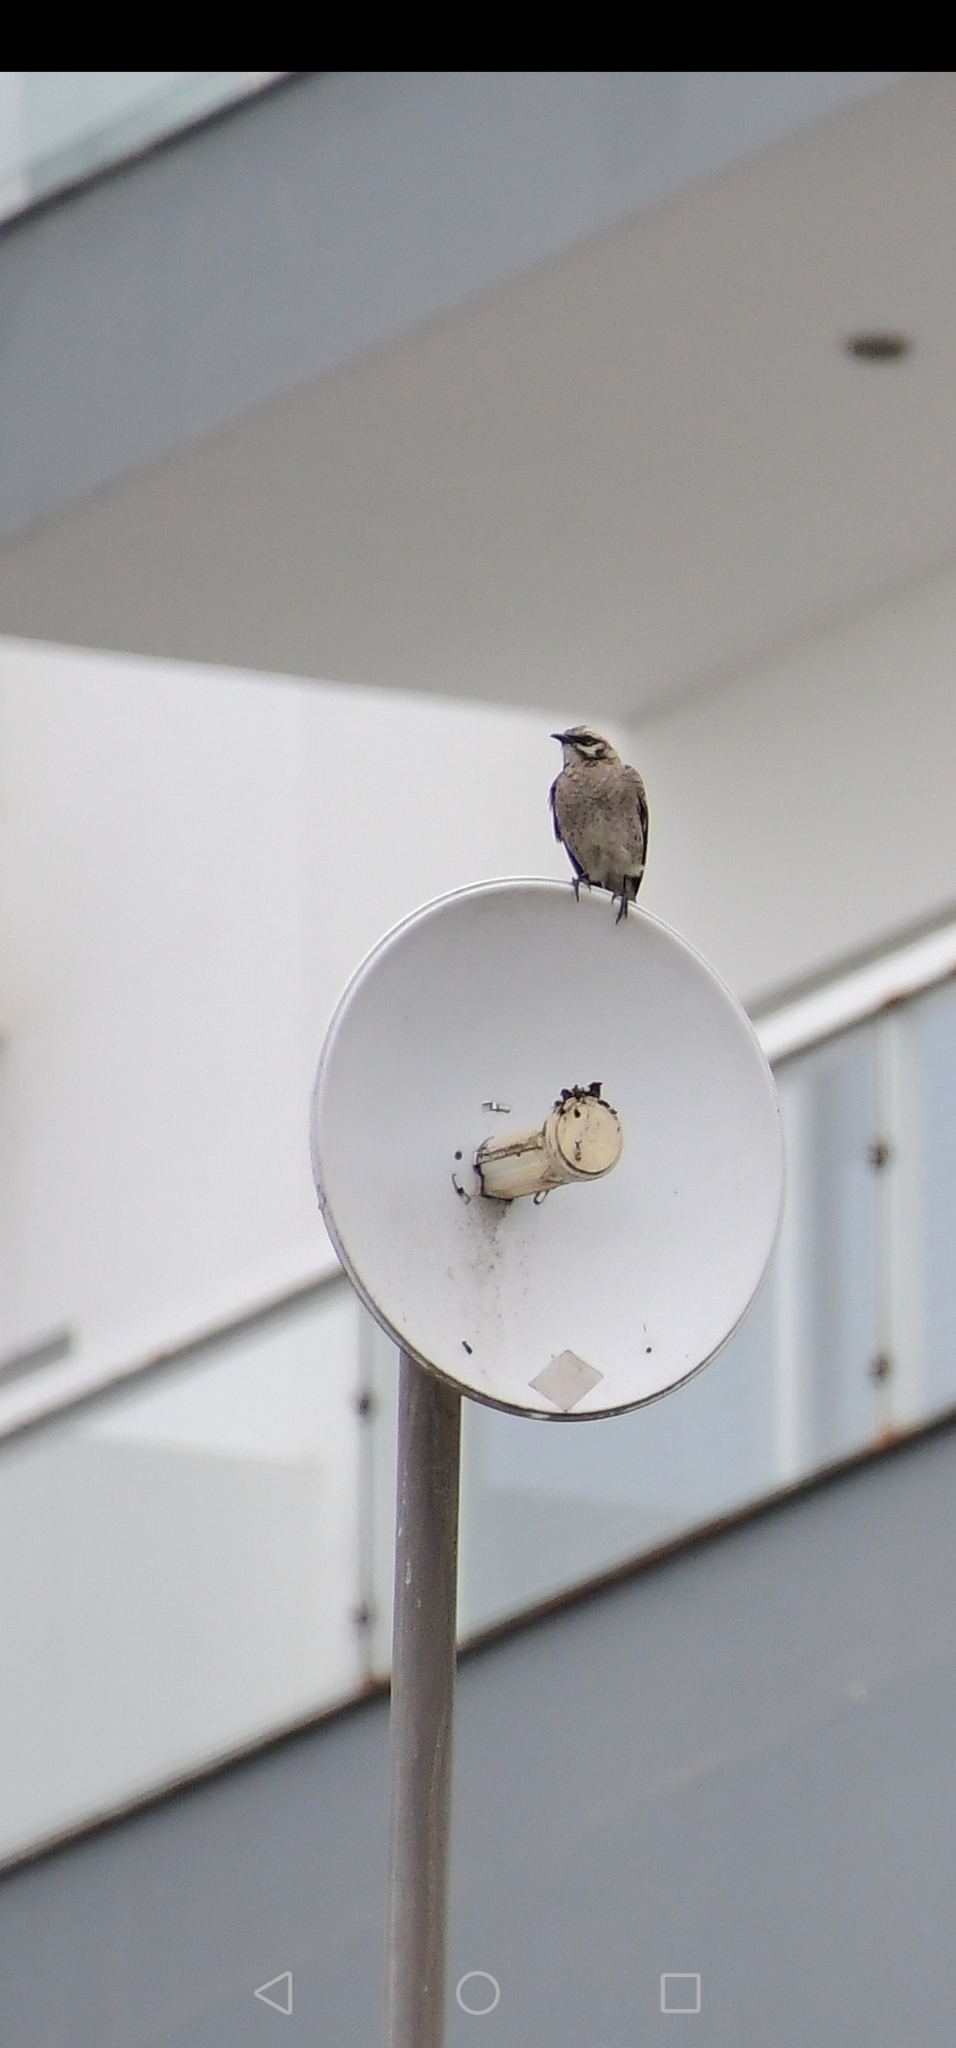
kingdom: Animalia
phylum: Chordata
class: Aves
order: Passeriformes
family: Mimidae
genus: Mimus
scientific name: Mimus longicaudatus
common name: Long-tailed mockingbird
